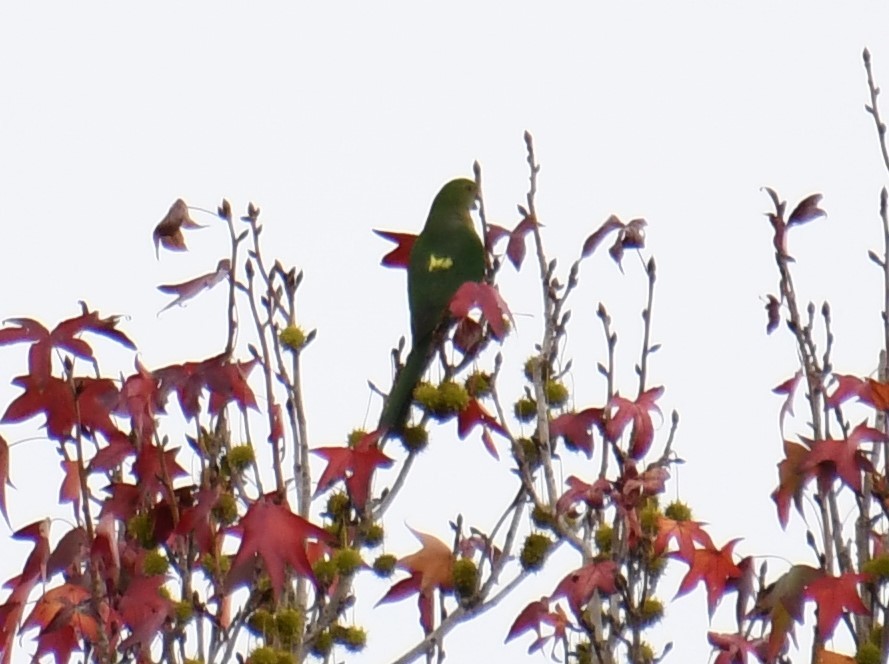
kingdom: Animalia
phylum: Chordata
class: Aves
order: Psittaciformes
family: Psittacidae
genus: Alisterus
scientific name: Alisterus scapularis
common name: Australian king parrot
